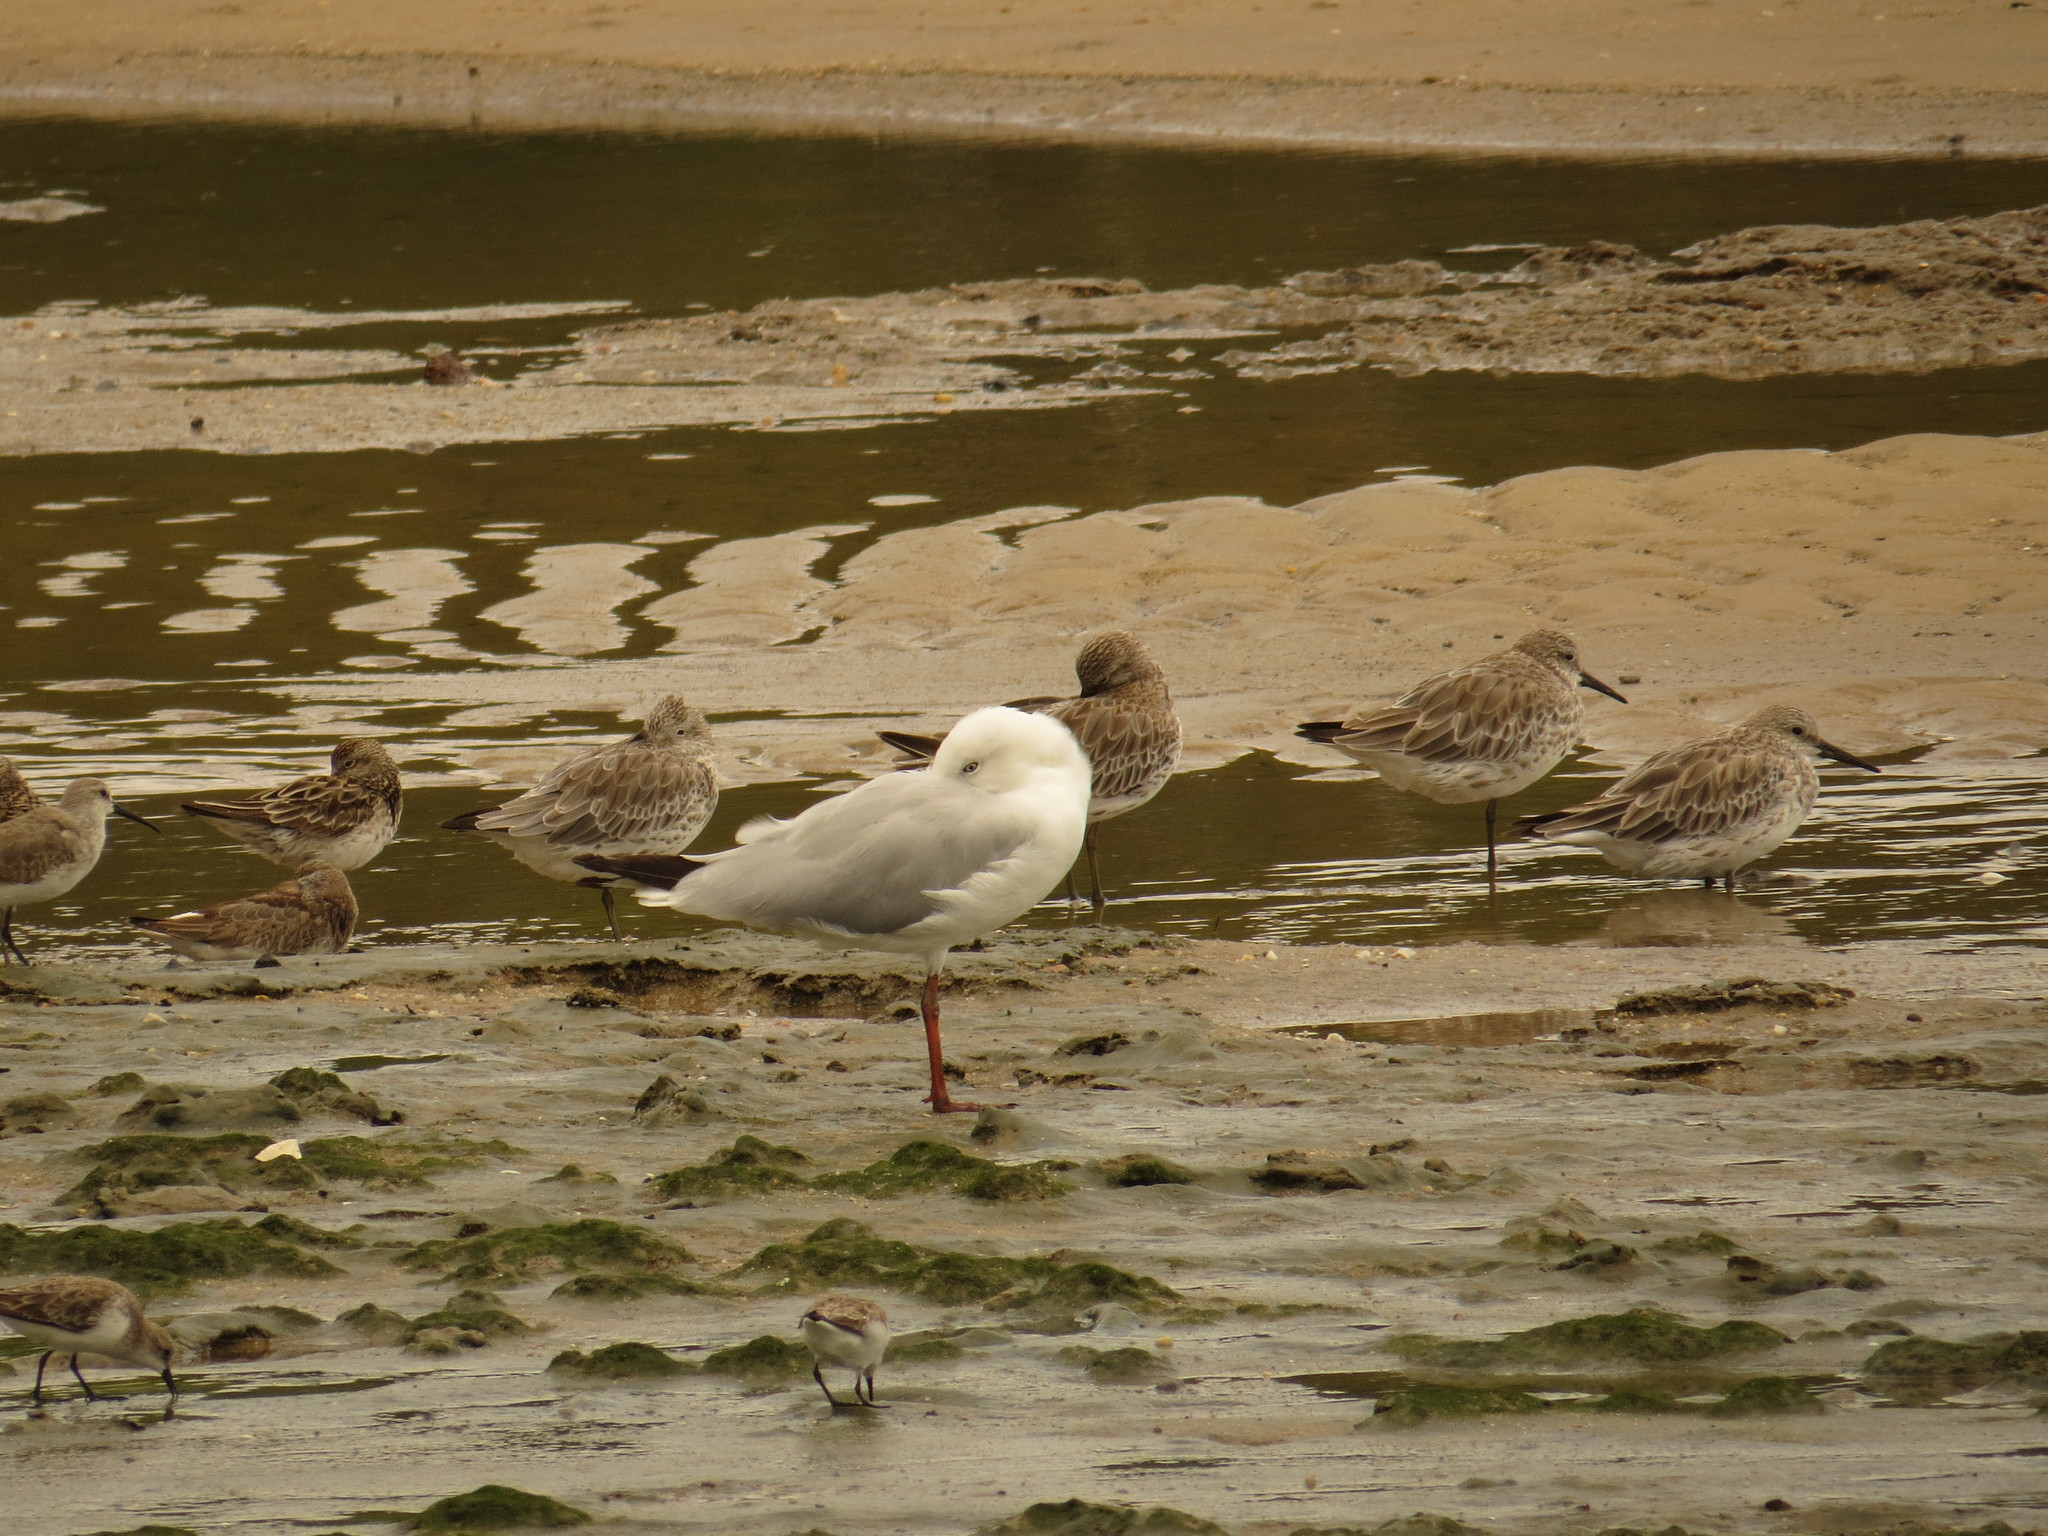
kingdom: Animalia
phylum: Chordata
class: Aves
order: Charadriiformes
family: Laridae
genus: Chroicocephalus
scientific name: Chroicocephalus novaehollandiae
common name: Silver gull
